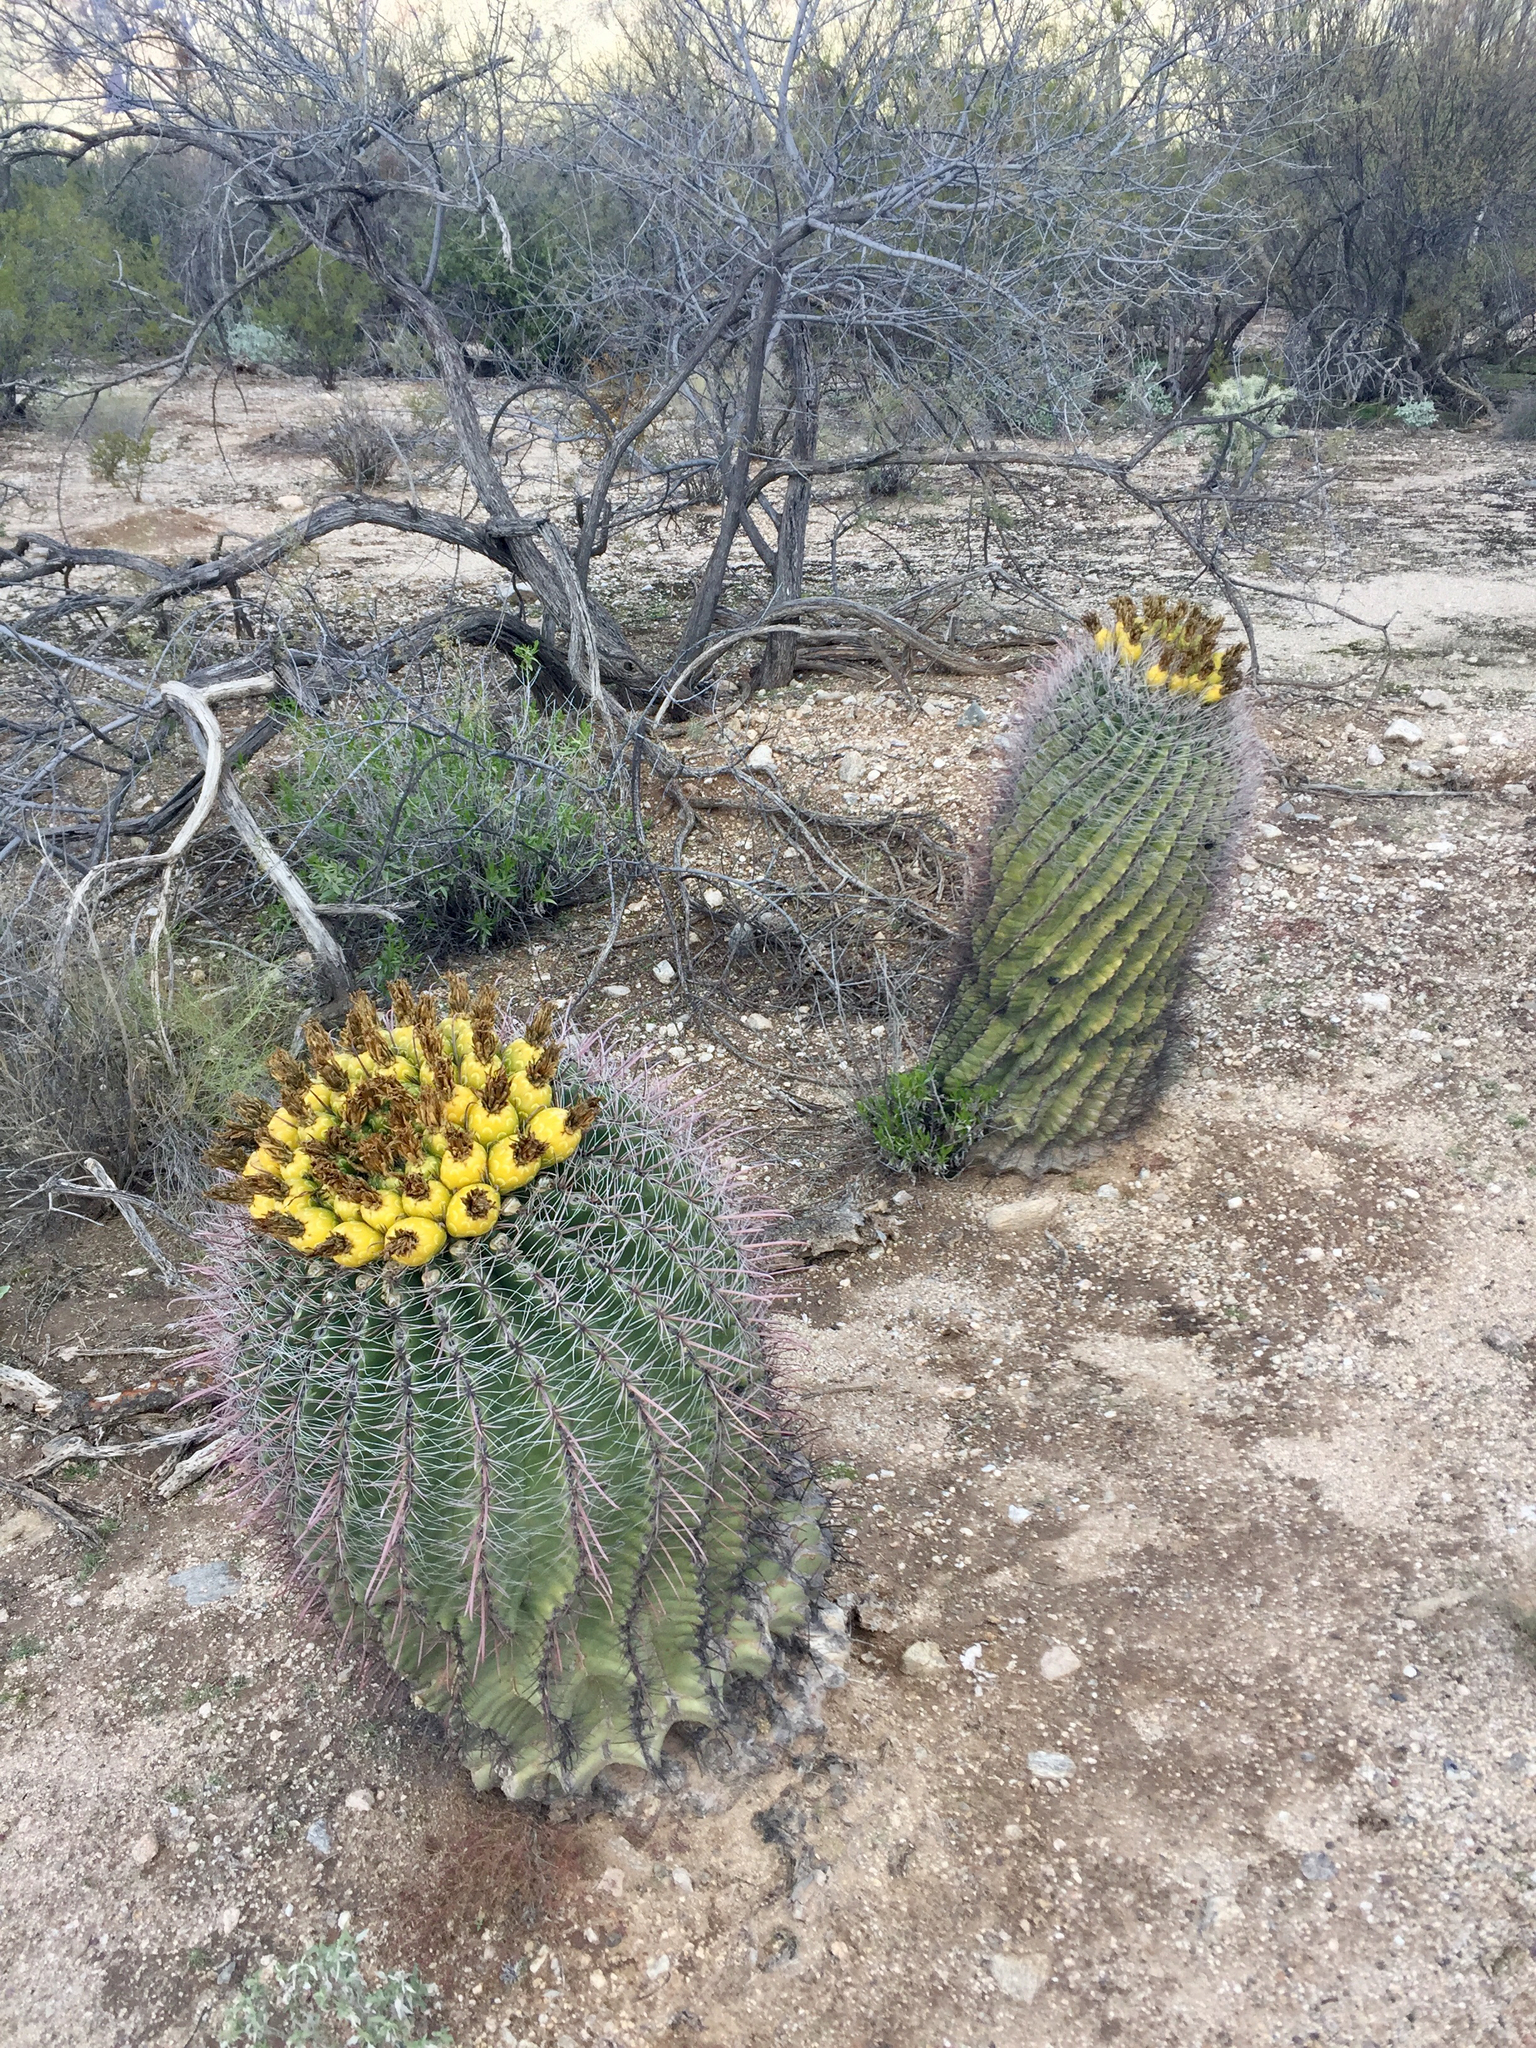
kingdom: Plantae
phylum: Tracheophyta
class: Magnoliopsida
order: Caryophyllales
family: Cactaceae
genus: Ferocactus
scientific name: Ferocactus wislizeni
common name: Candy barrel cactus
